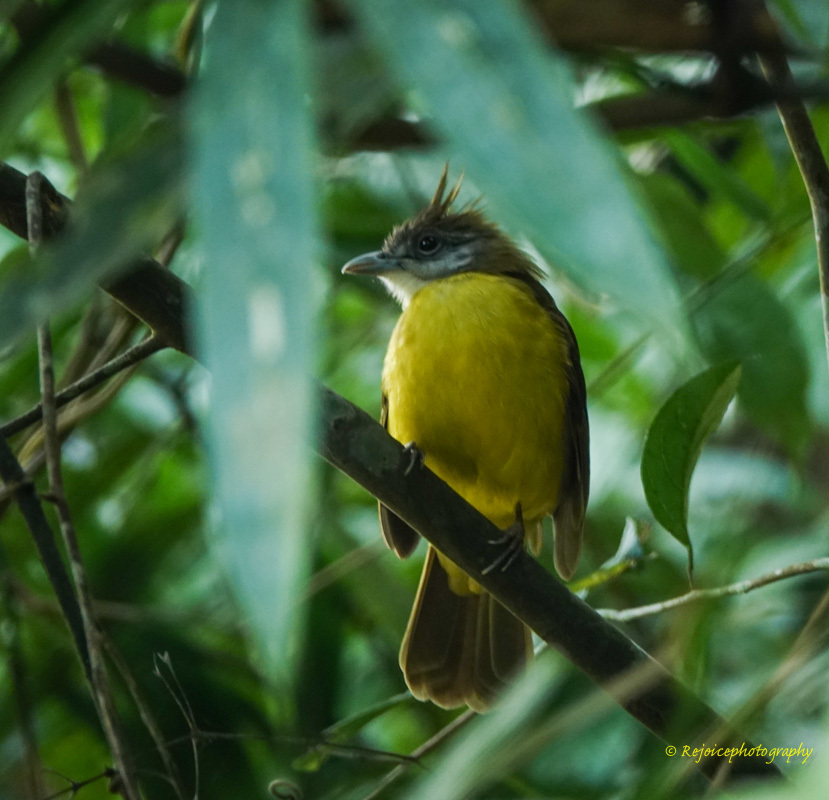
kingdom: Animalia
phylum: Chordata
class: Aves
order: Passeriformes
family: Pycnonotidae
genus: Alophoixus
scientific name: Alophoixus flaveolus
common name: White-throated bulbul
